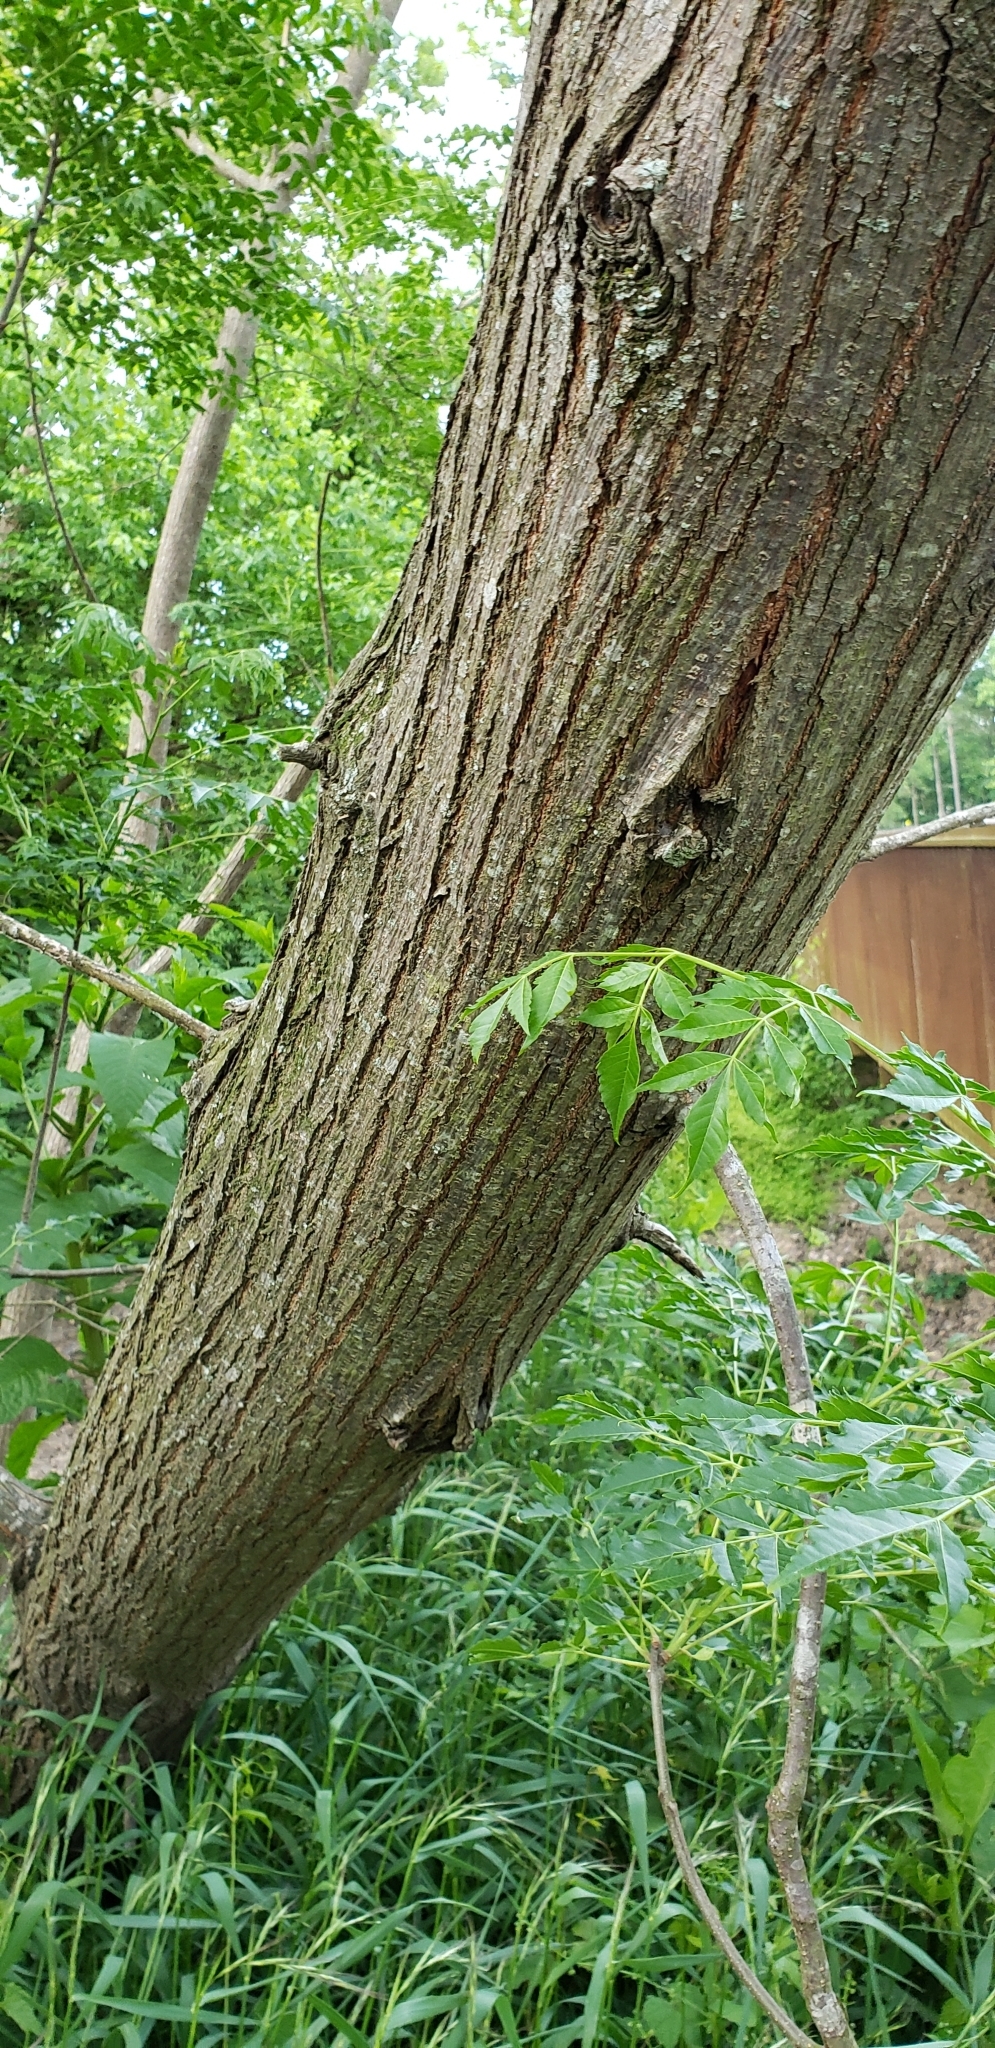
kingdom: Plantae
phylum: Tracheophyta
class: Magnoliopsida
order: Sapindales
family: Meliaceae
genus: Melia
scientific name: Melia azedarach
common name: Chinaberrytree
